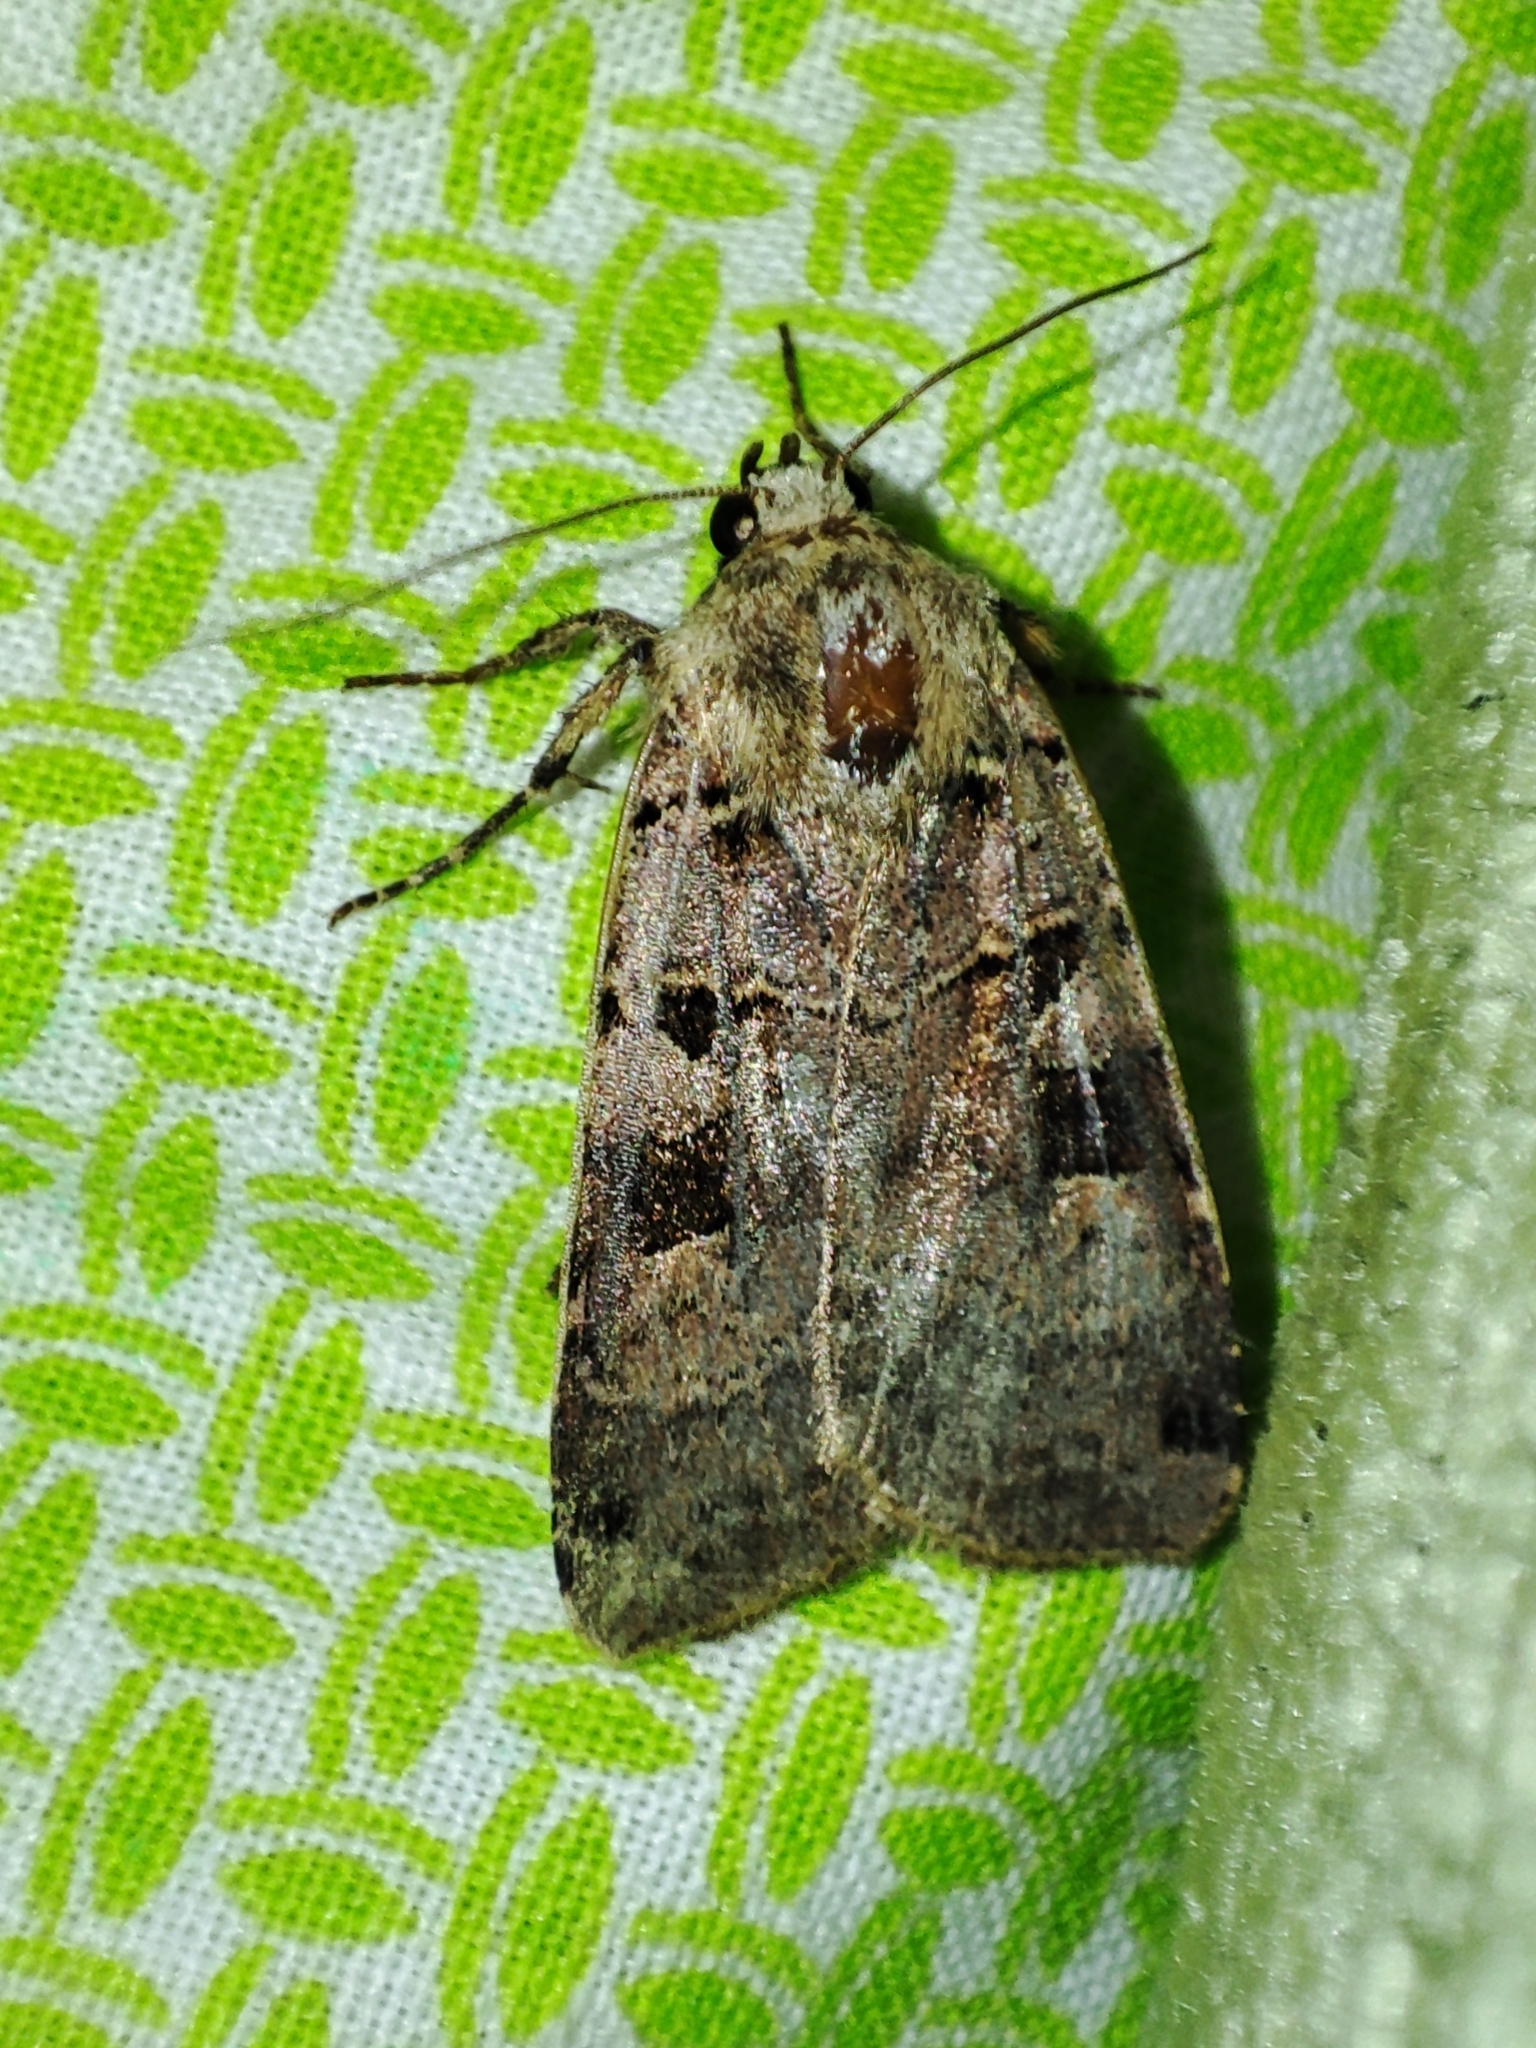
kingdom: Animalia
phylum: Arthropoda
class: Insecta
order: Lepidoptera
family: Noctuidae
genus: Xestia
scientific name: Xestia triangulum
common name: Double square-spot
